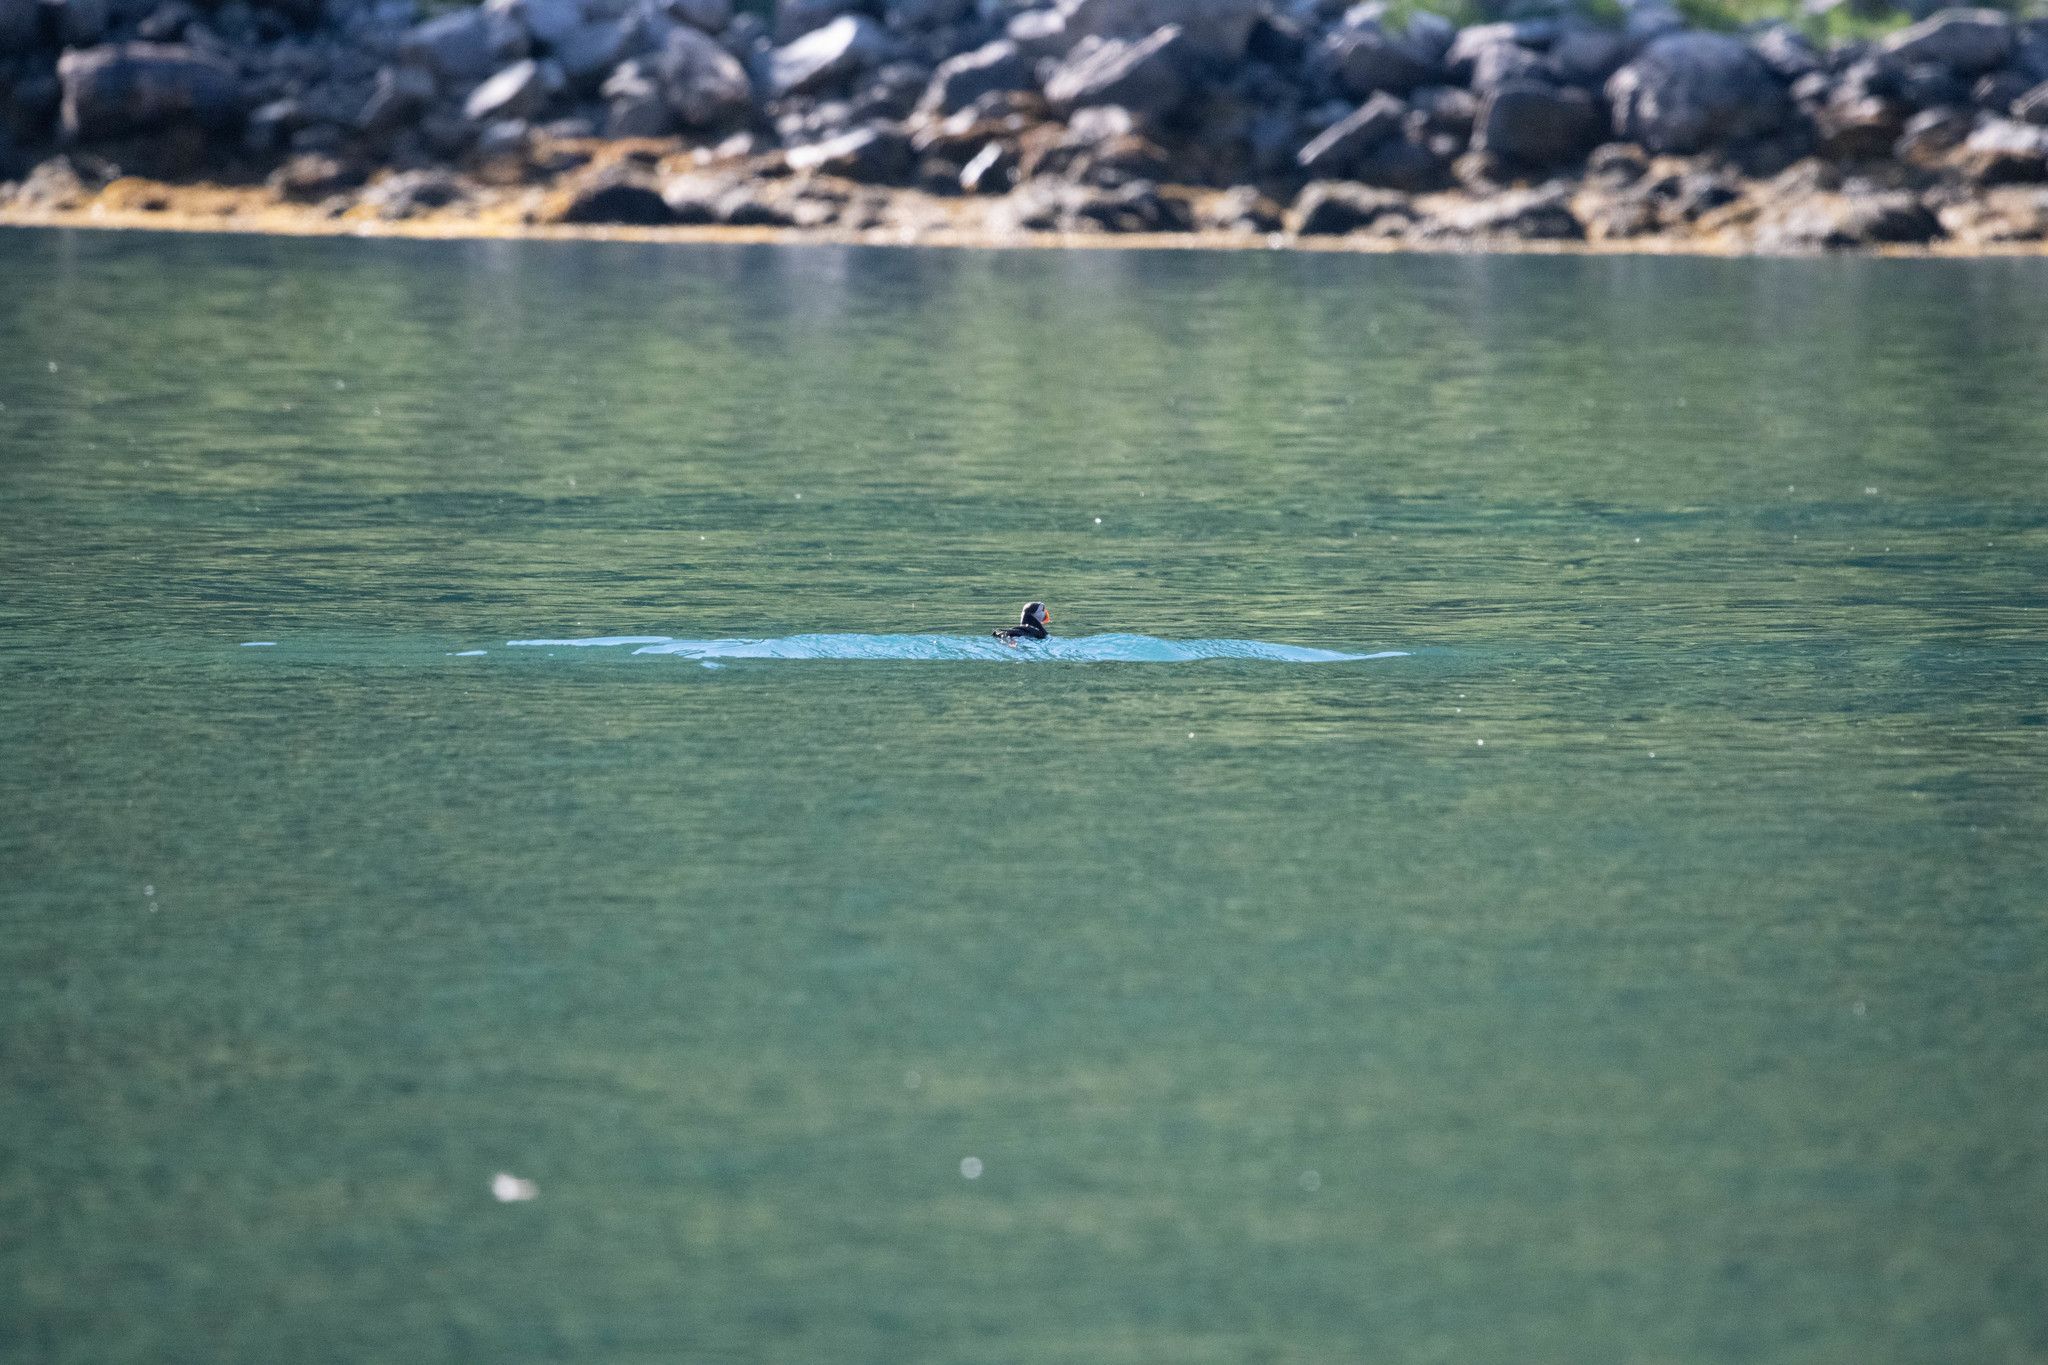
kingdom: Animalia
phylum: Chordata
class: Aves
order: Charadriiformes
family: Alcidae
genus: Fratercula
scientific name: Fratercula arctica
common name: Atlantic puffin
